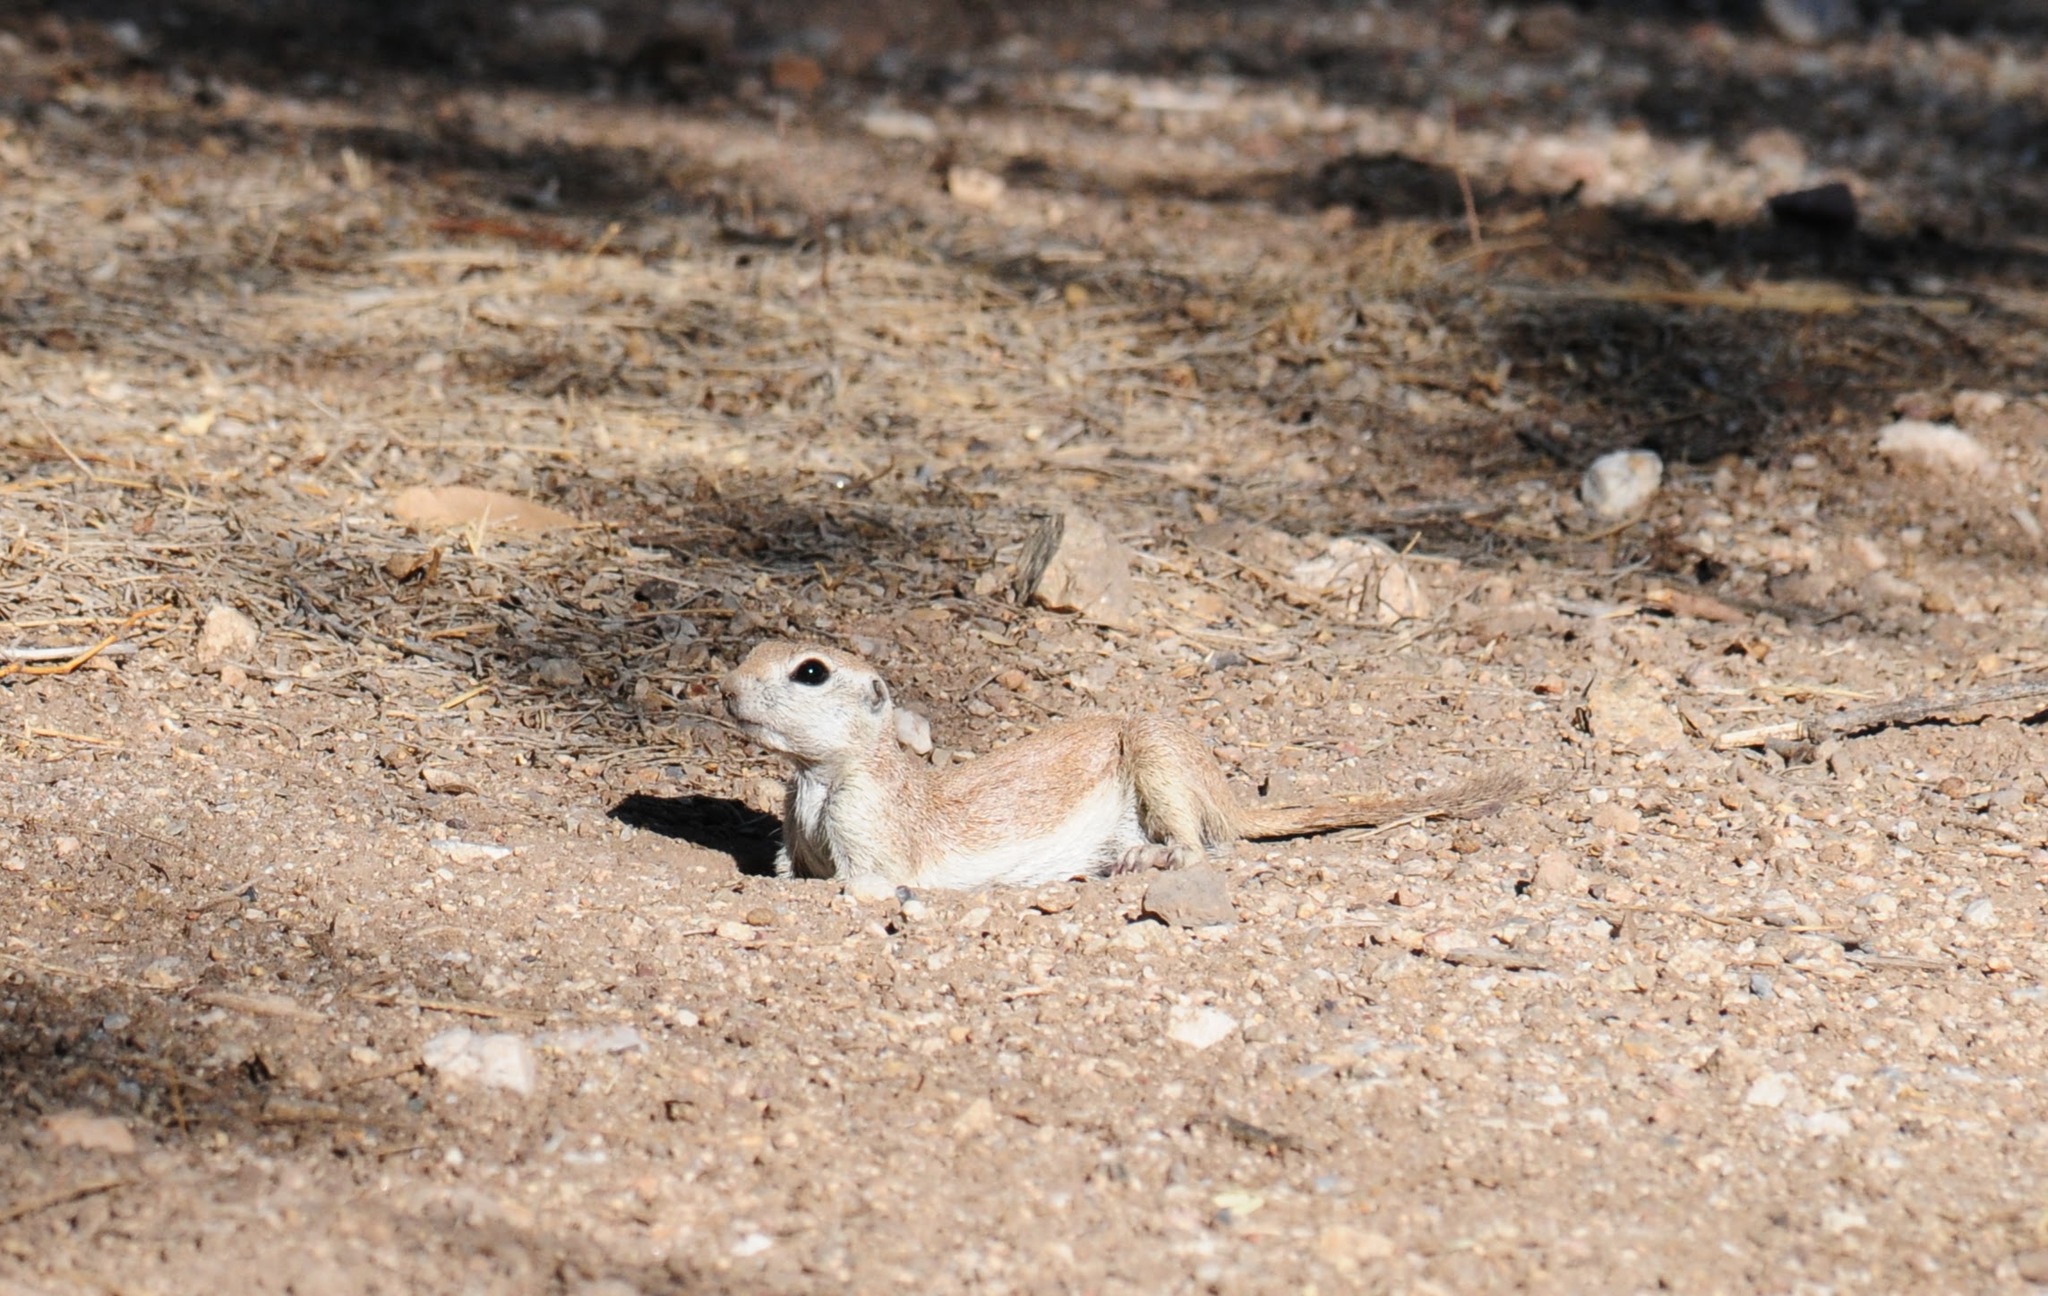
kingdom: Animalia
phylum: Chordata
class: Mammalia
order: Rodentia
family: Sciuridae
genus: Xerospermophilus
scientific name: Xerospermophilus tereticaudus
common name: Round-tailed ground squirrel
